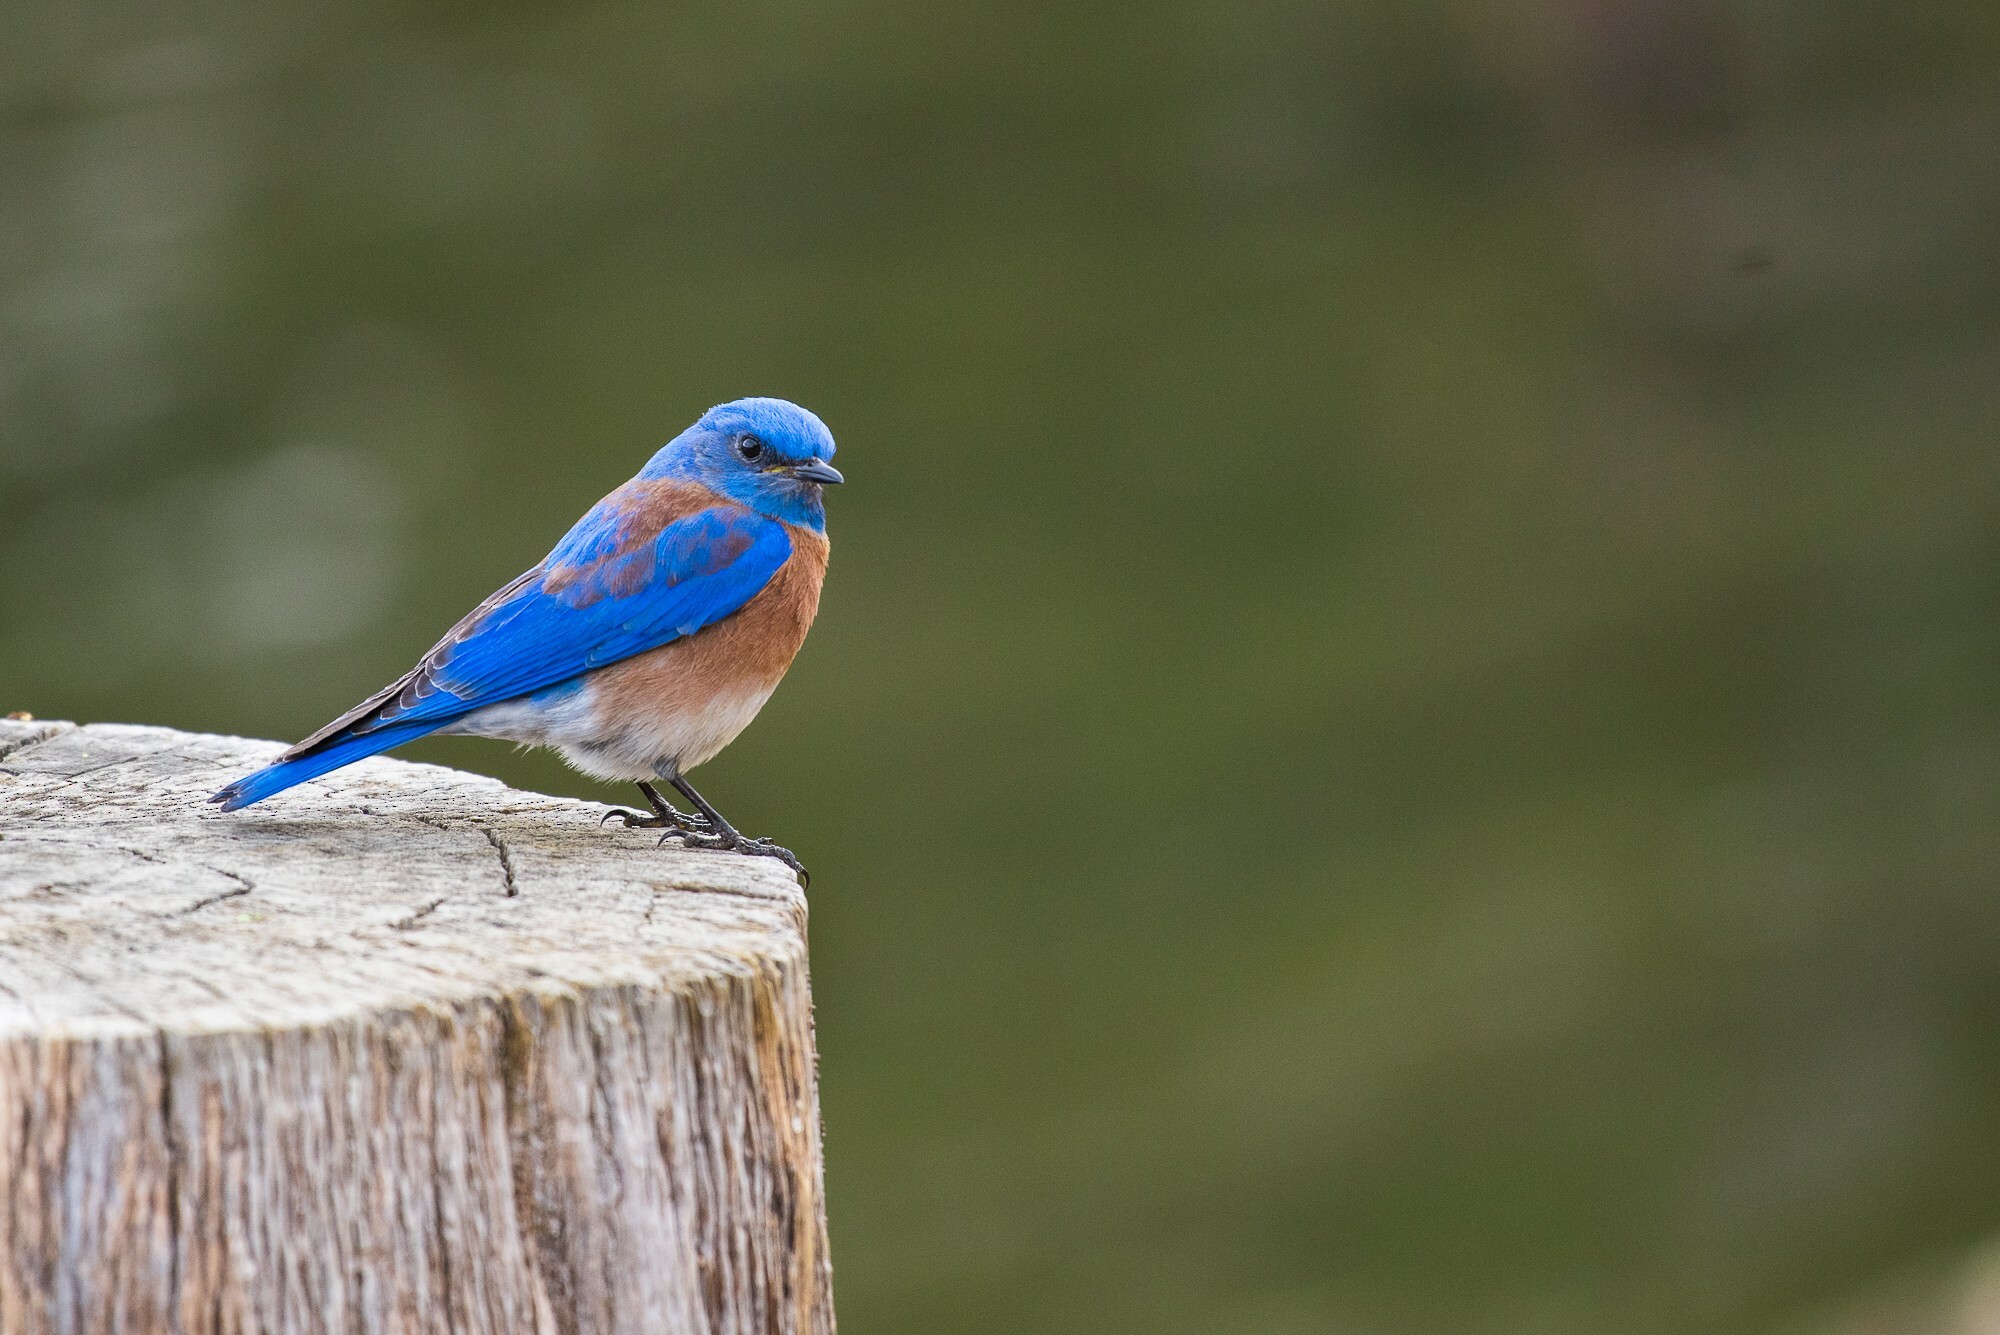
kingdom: Animalia
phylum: Chordata
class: Aves
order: Passeriformes
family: Turdidae
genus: Sialia
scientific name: Sialia mexicana
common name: Western bluebird
